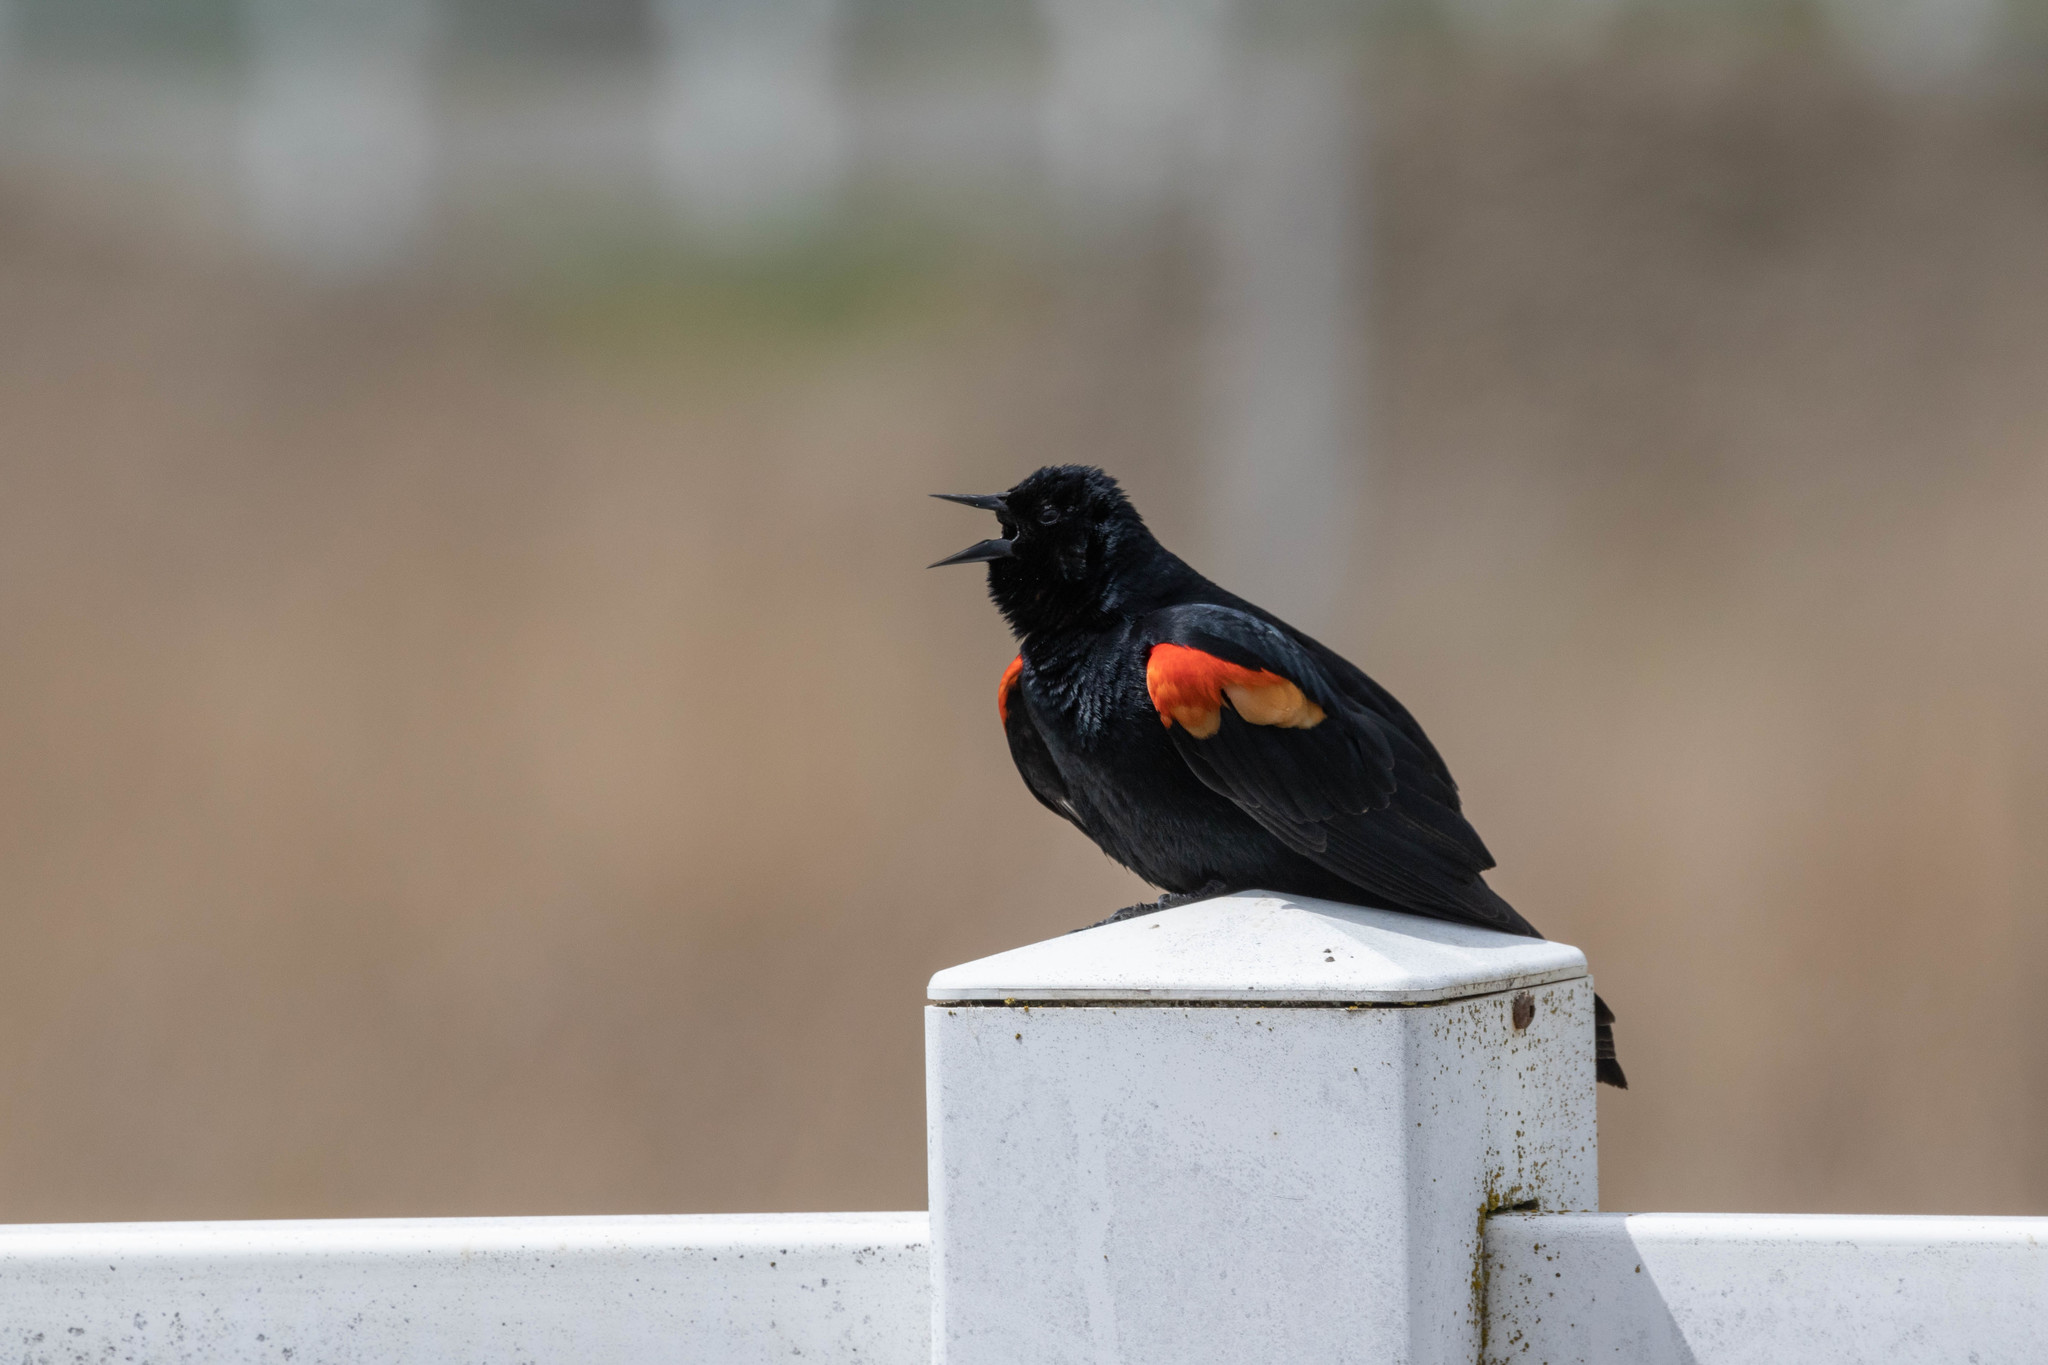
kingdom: Animalia
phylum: Chordata
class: Aves
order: Passeriformes
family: Icteridae
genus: Agelaius
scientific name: Agelaius phoeniceus
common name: Red-winged blackbird
